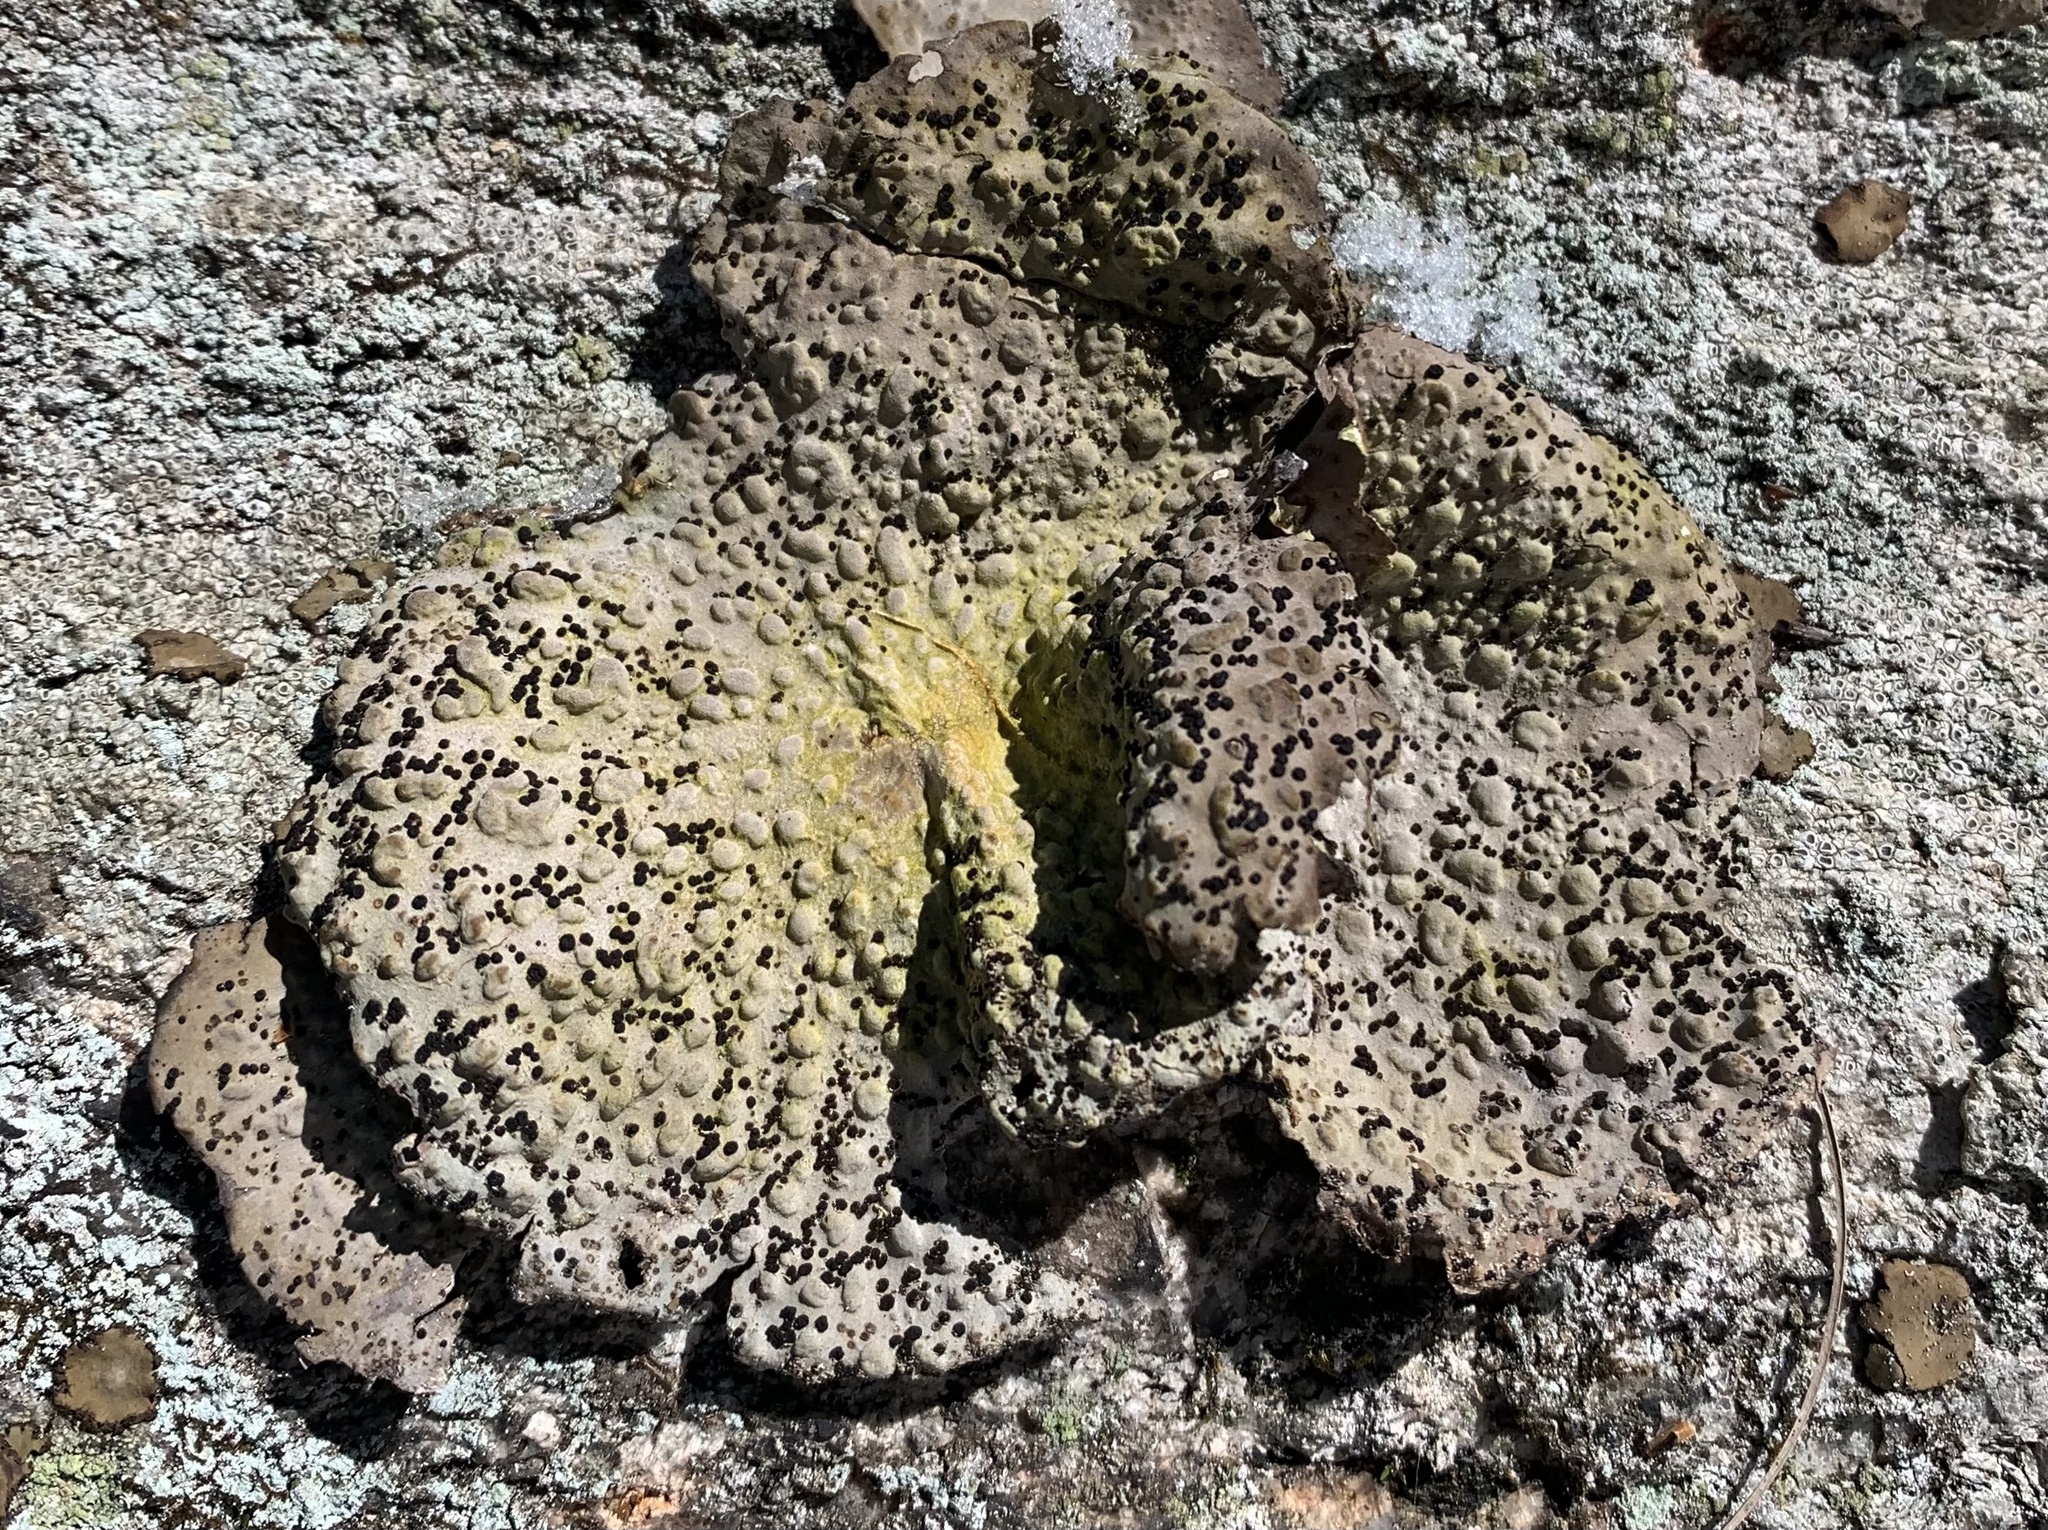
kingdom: Fungi
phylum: Ascomycota
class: Lecanoromycetes
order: Umbilicariales
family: Umbilicariaceae
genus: Lasallia
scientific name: Lasallia papulosa
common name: Common toadskin lichen
